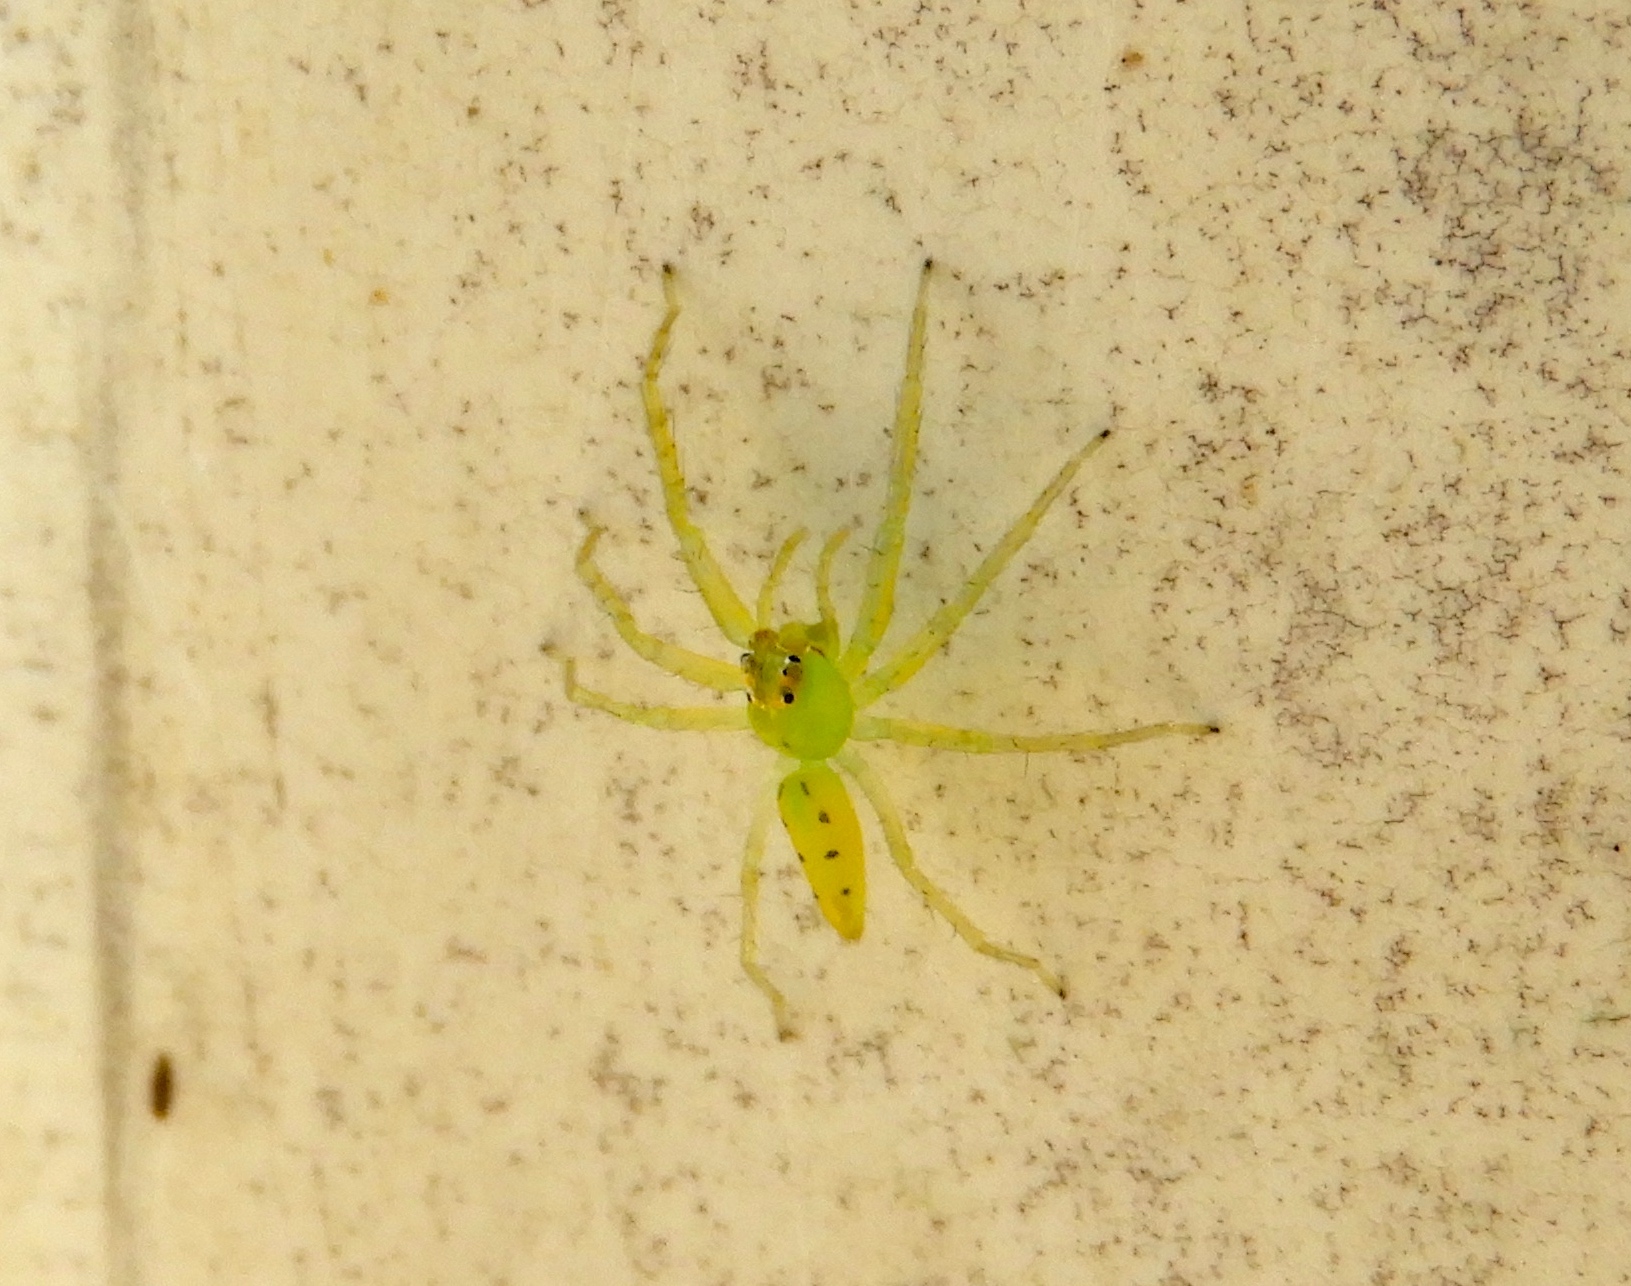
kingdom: Animalia
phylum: Arthropoda
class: Arachnida
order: Araneae
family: Salticidae
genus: Lyssomanes
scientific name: Lyssomanes
